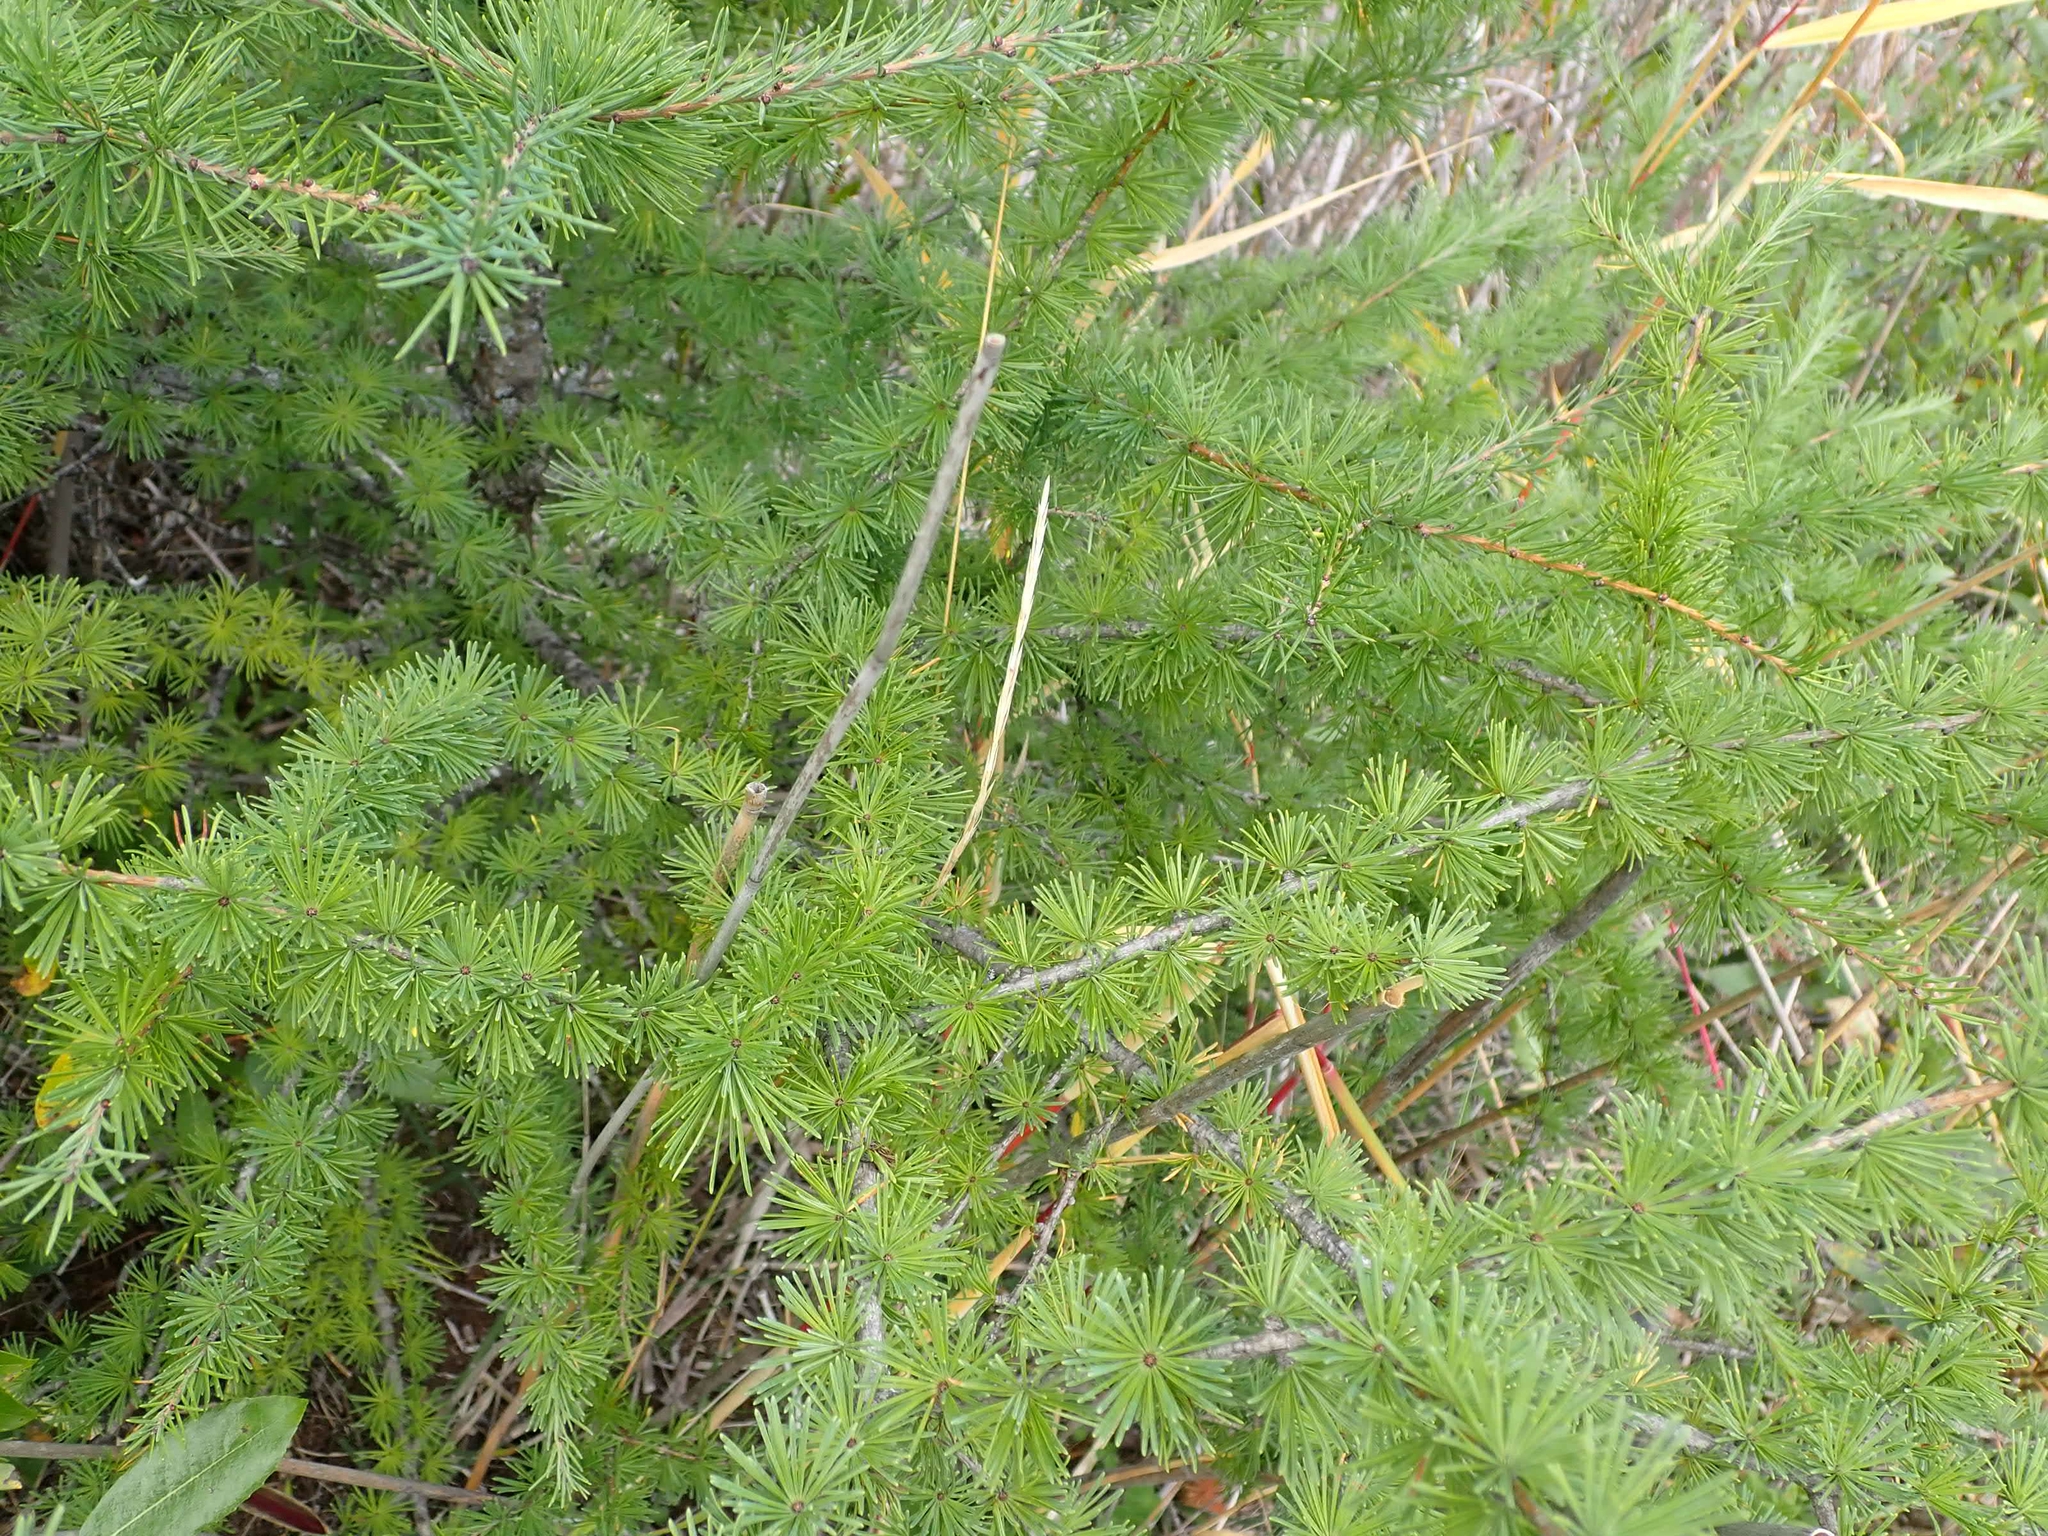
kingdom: Plantae
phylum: Tracheophyta
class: Pinopsida
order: Pinales
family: Pinaceae
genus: Larix
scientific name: Larix laricina
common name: American larch
